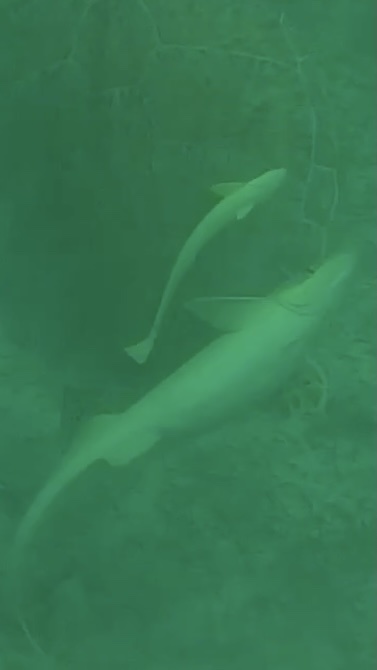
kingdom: Animalia
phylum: Chordata
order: Perciformes
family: Echeneidae
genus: Echeneis
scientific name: Echeneis naucrates
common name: Sharksucker
